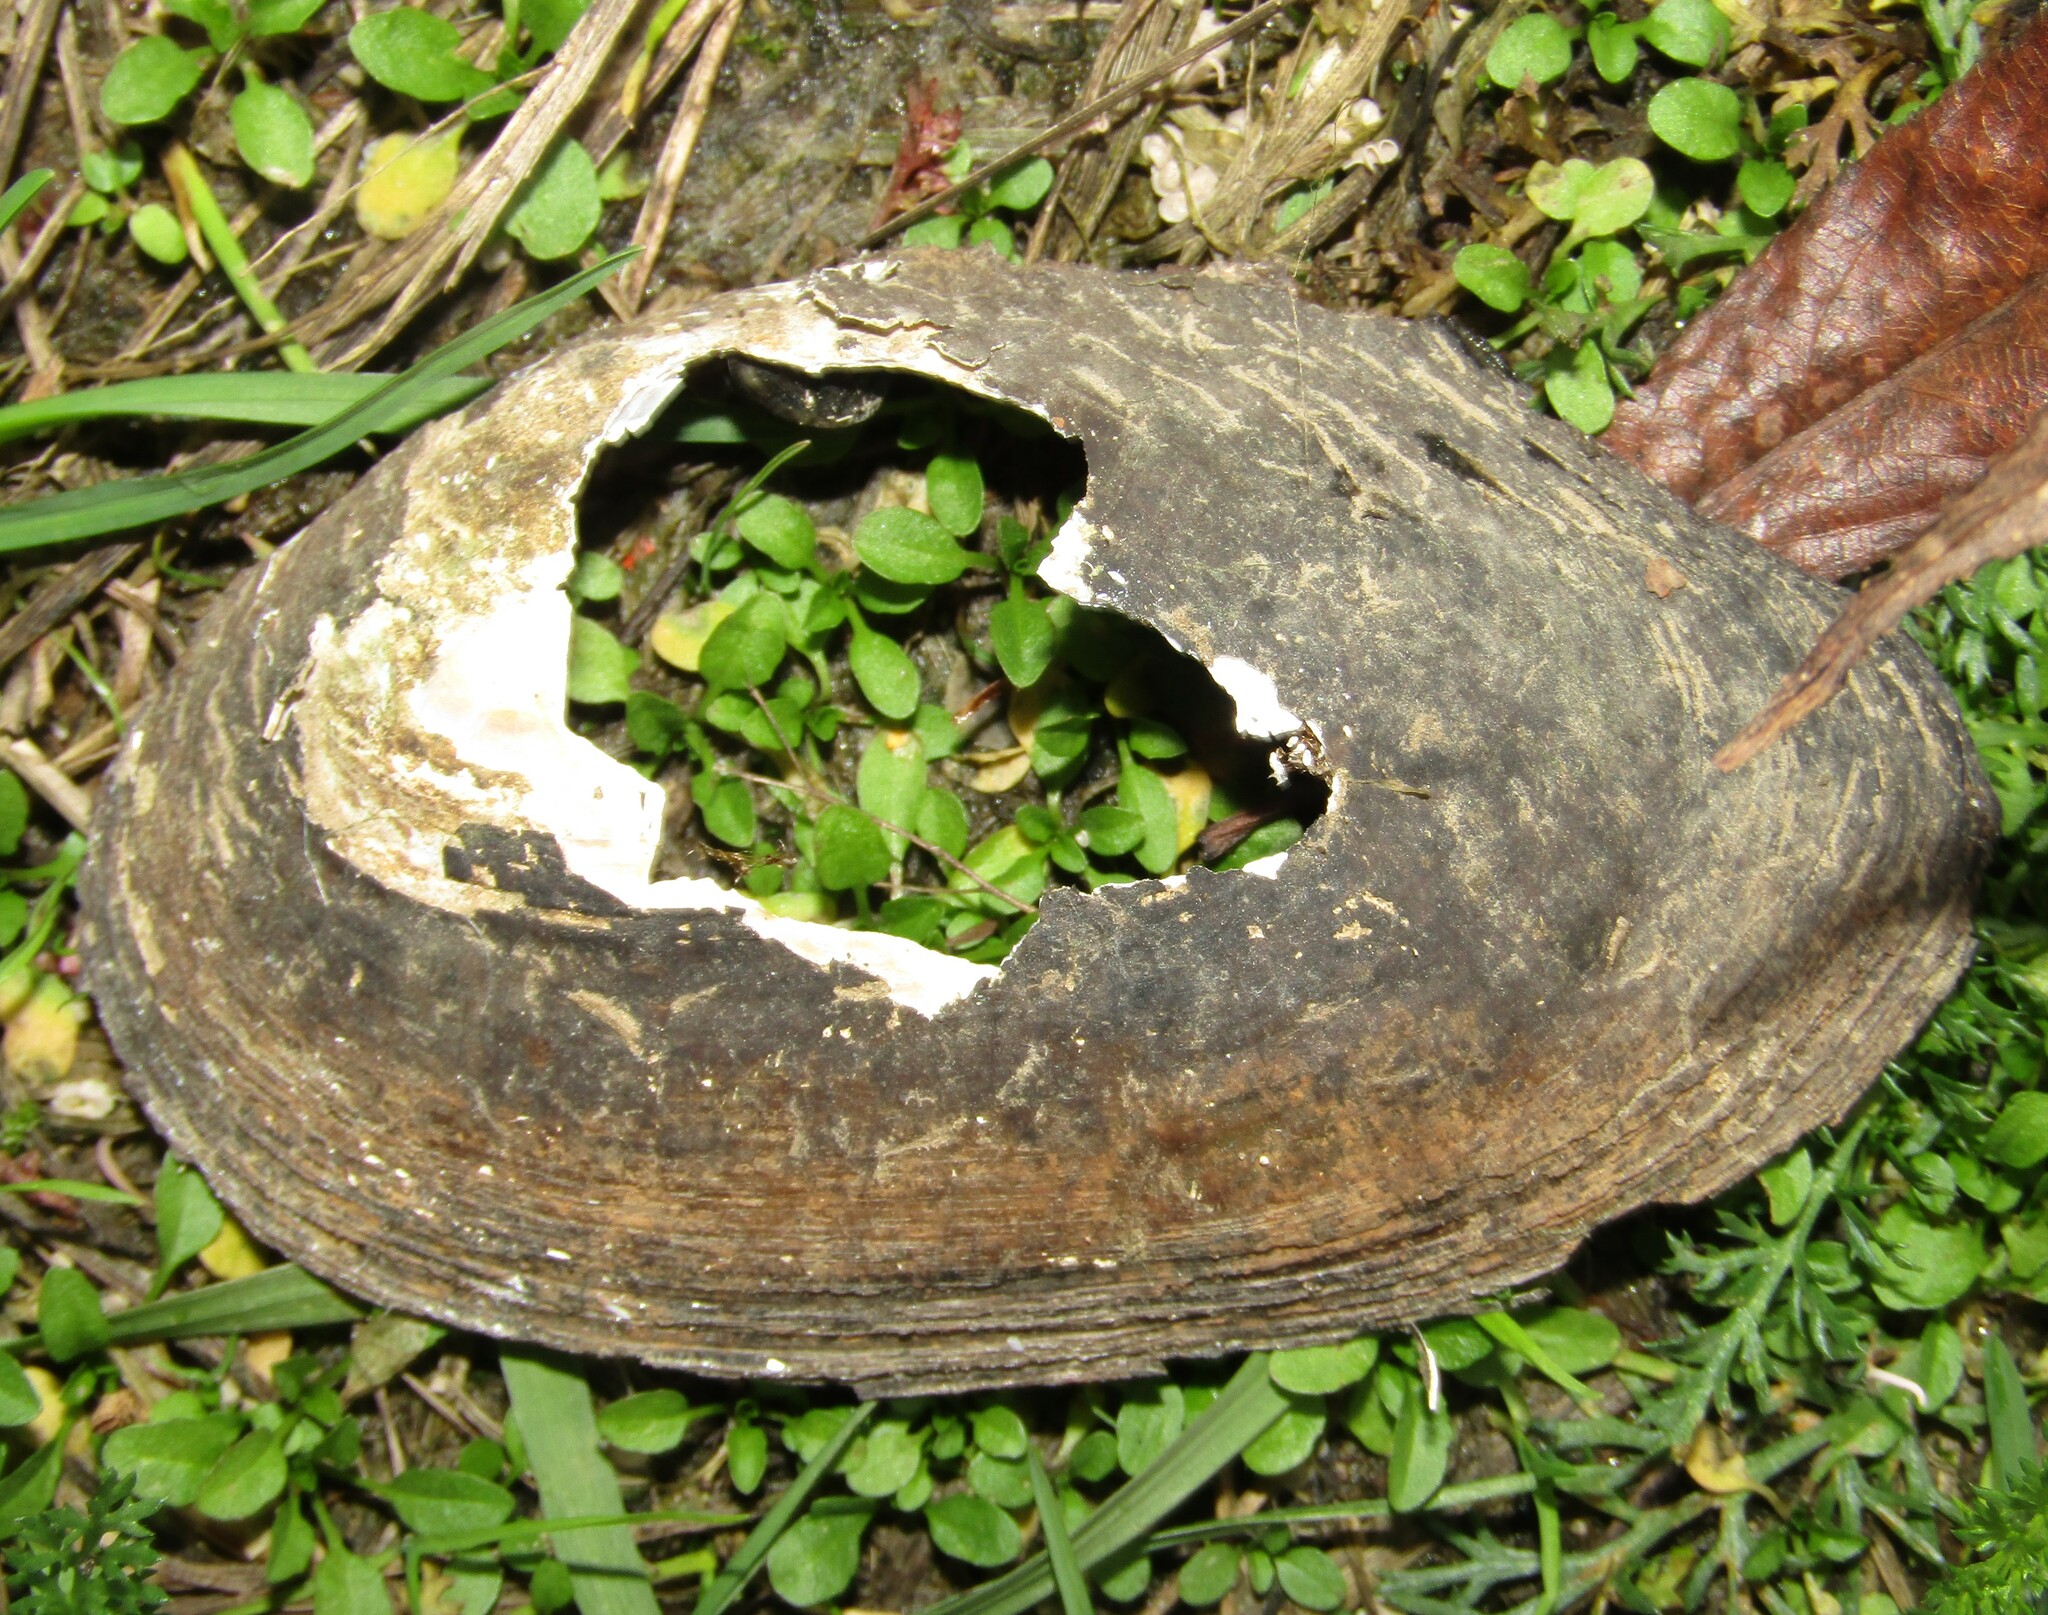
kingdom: Animalia
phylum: Mollusca
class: Bivalvia
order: Unionida
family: Unionidae
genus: Anodonta
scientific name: Anodonta anatina
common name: Duck mussel
